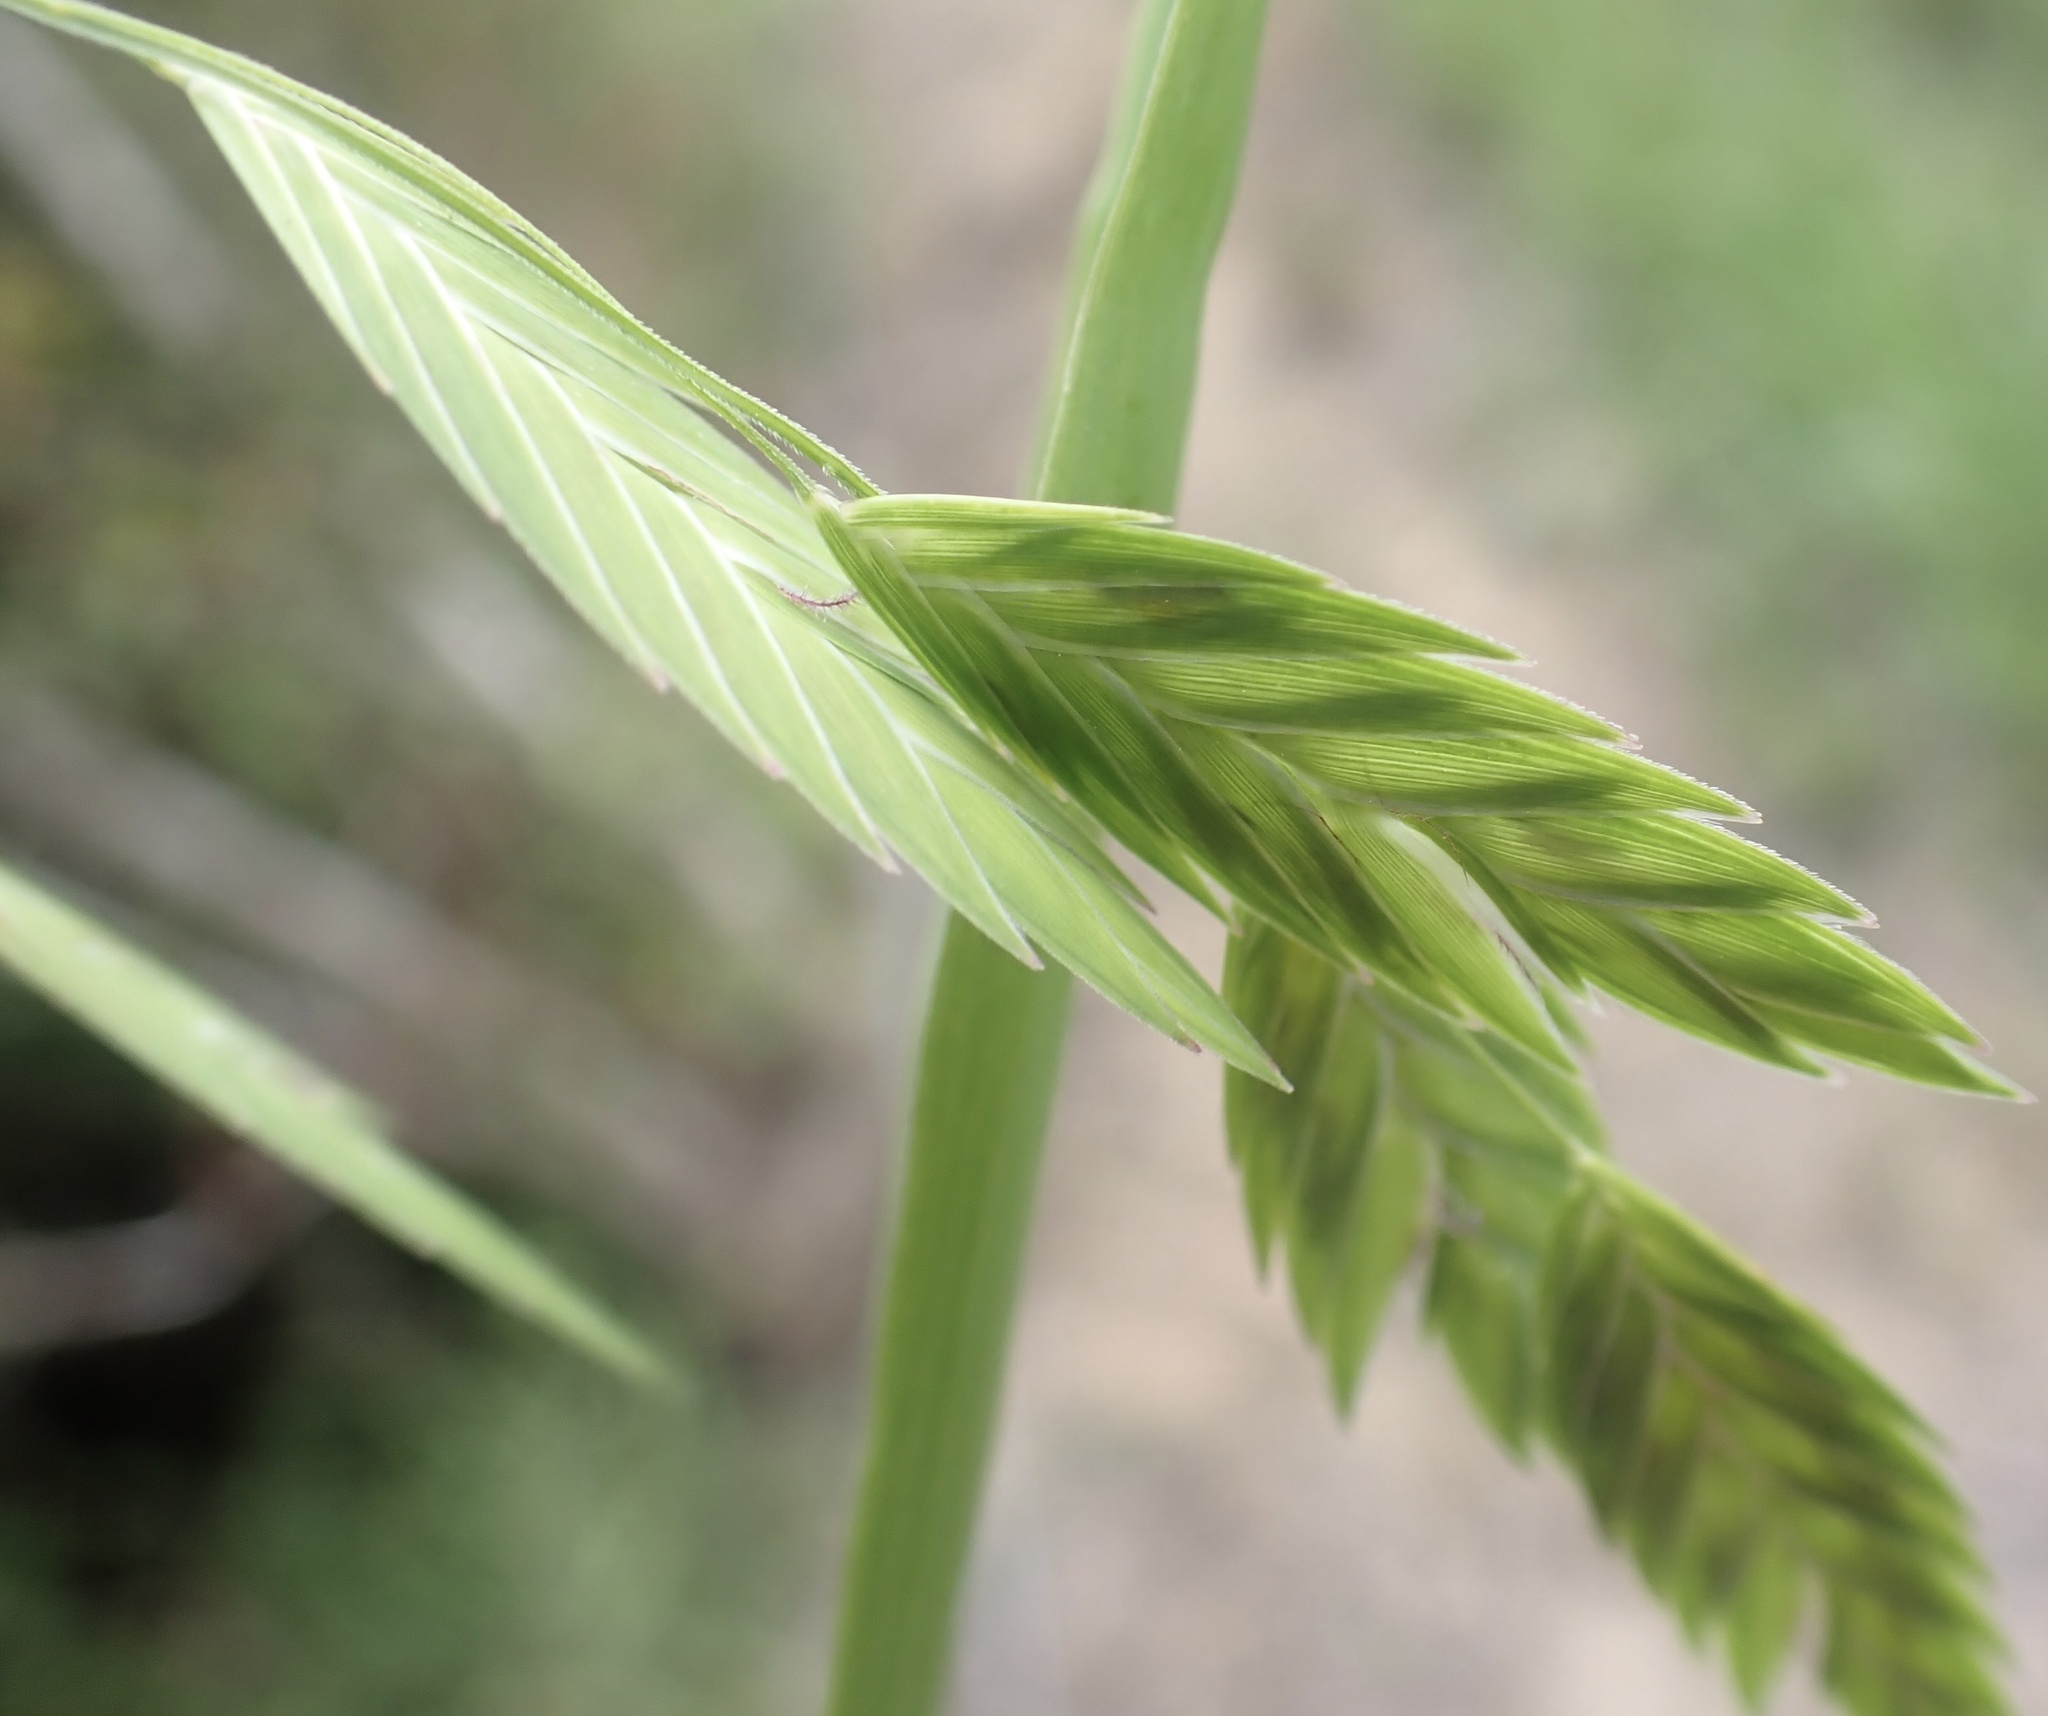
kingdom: Plantae
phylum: Tracheophyta
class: Liliopsida
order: Poales
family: Poaceae
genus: Chasmanthium
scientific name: Chasmanthium latifolium
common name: Broad-leaved chasmanthium
